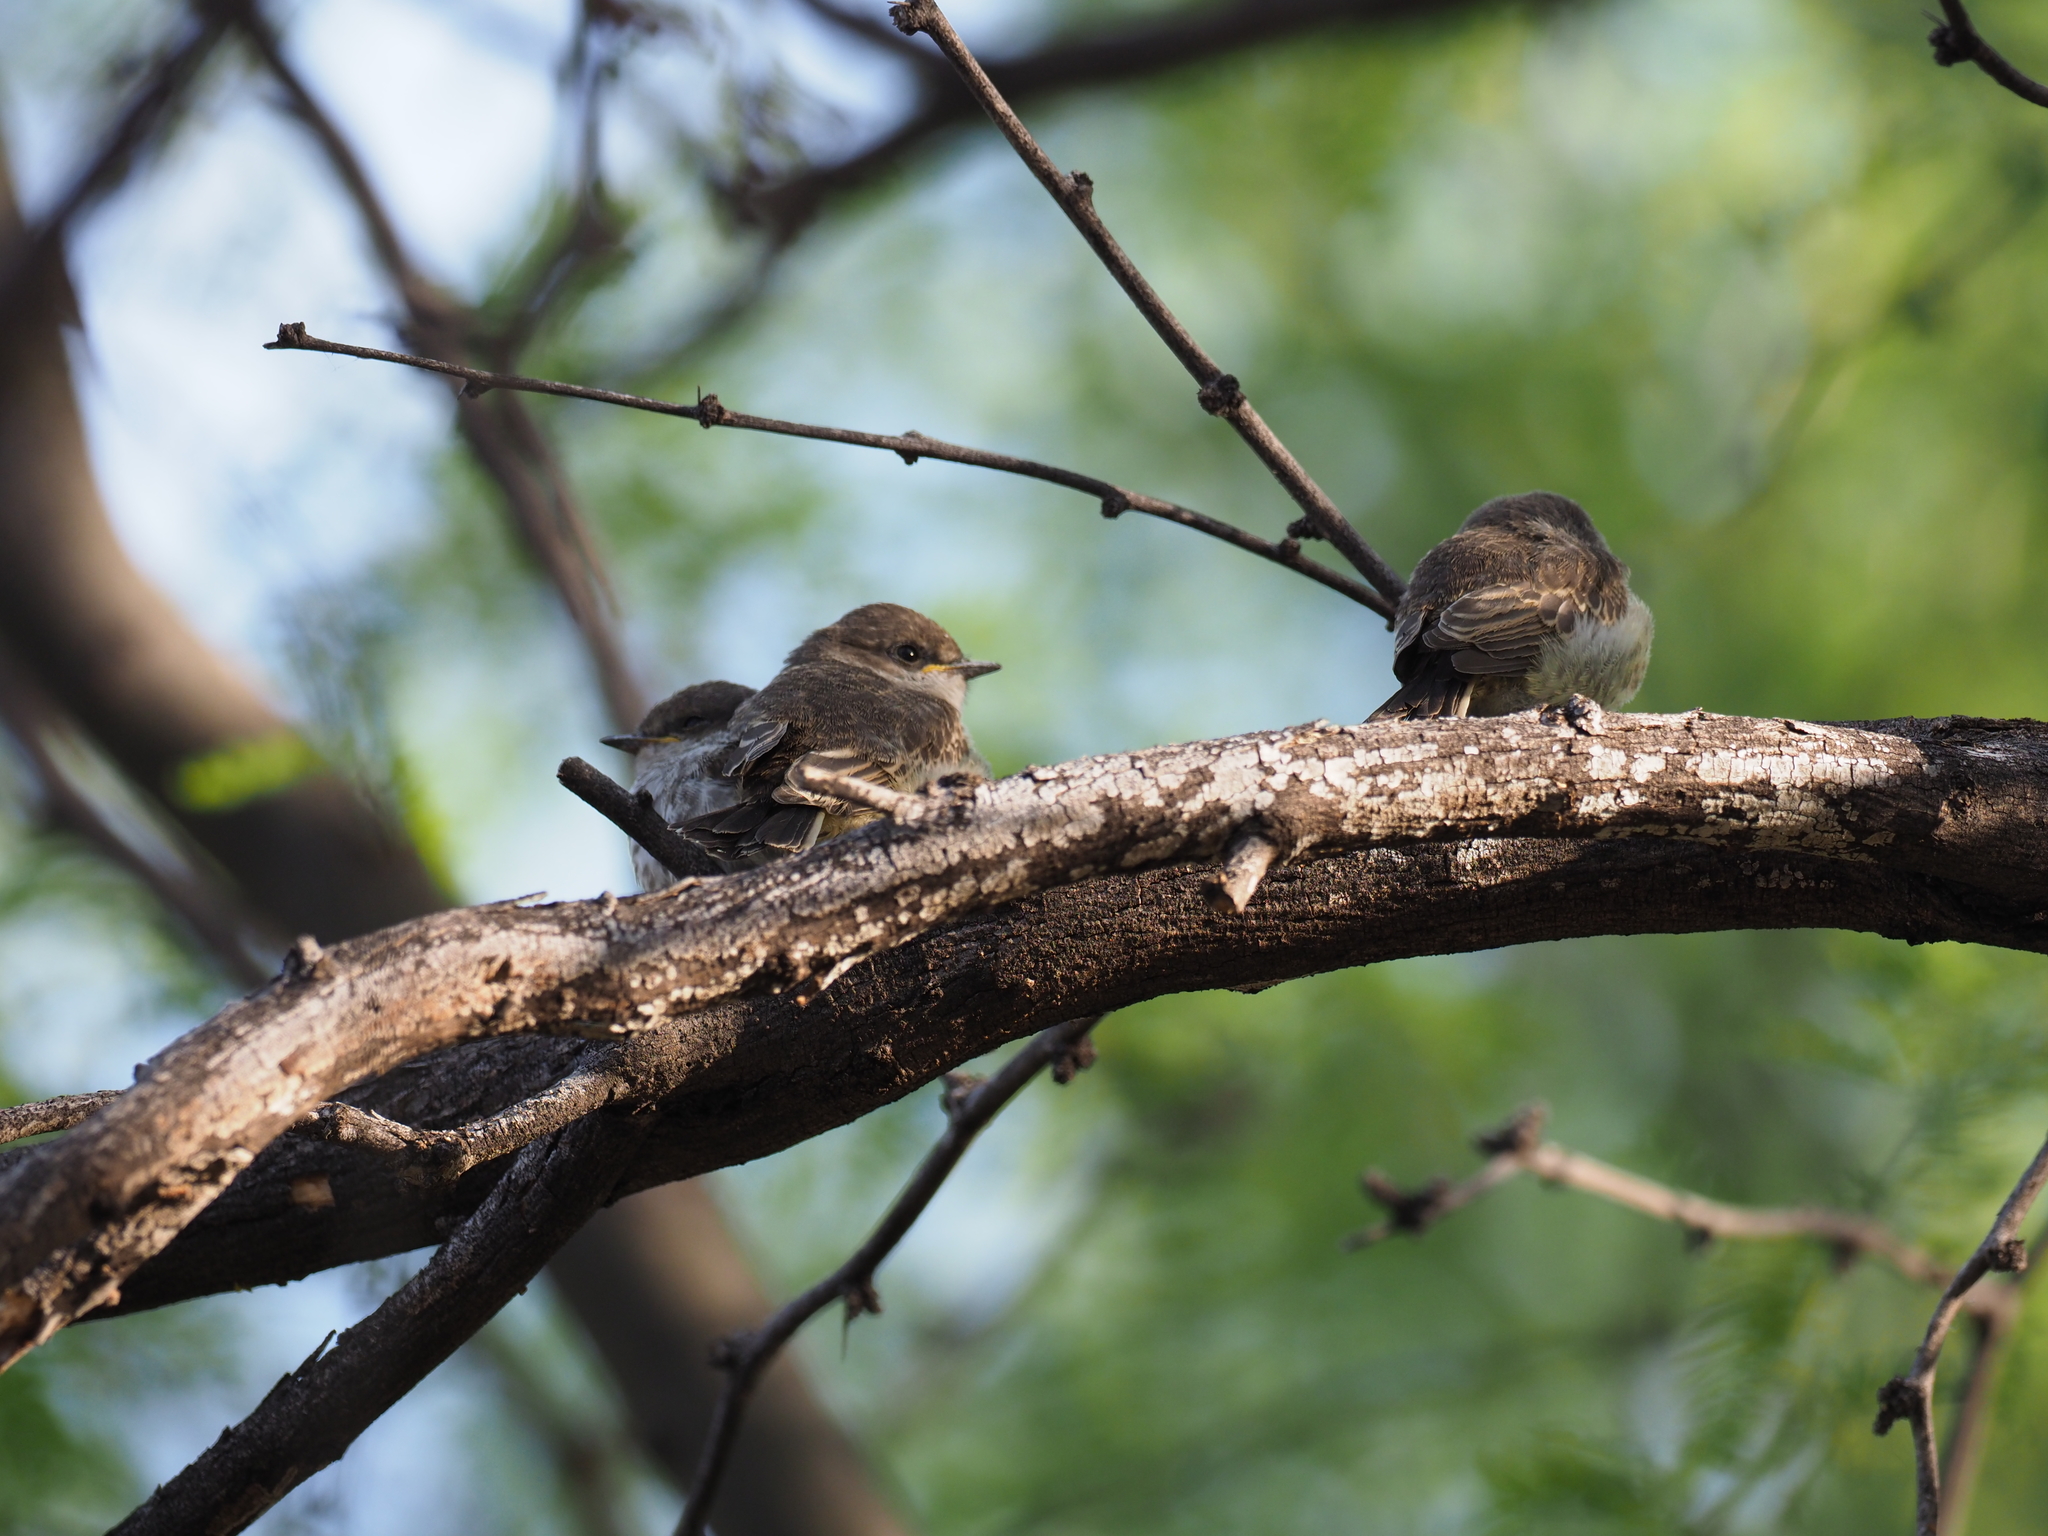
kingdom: Animalia
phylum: Chordata
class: Aves
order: Passeriformes
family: Tyrannidae
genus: Pyrocephalus
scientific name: Pyrocephalus rubinus
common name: Vermilion flycatcher
